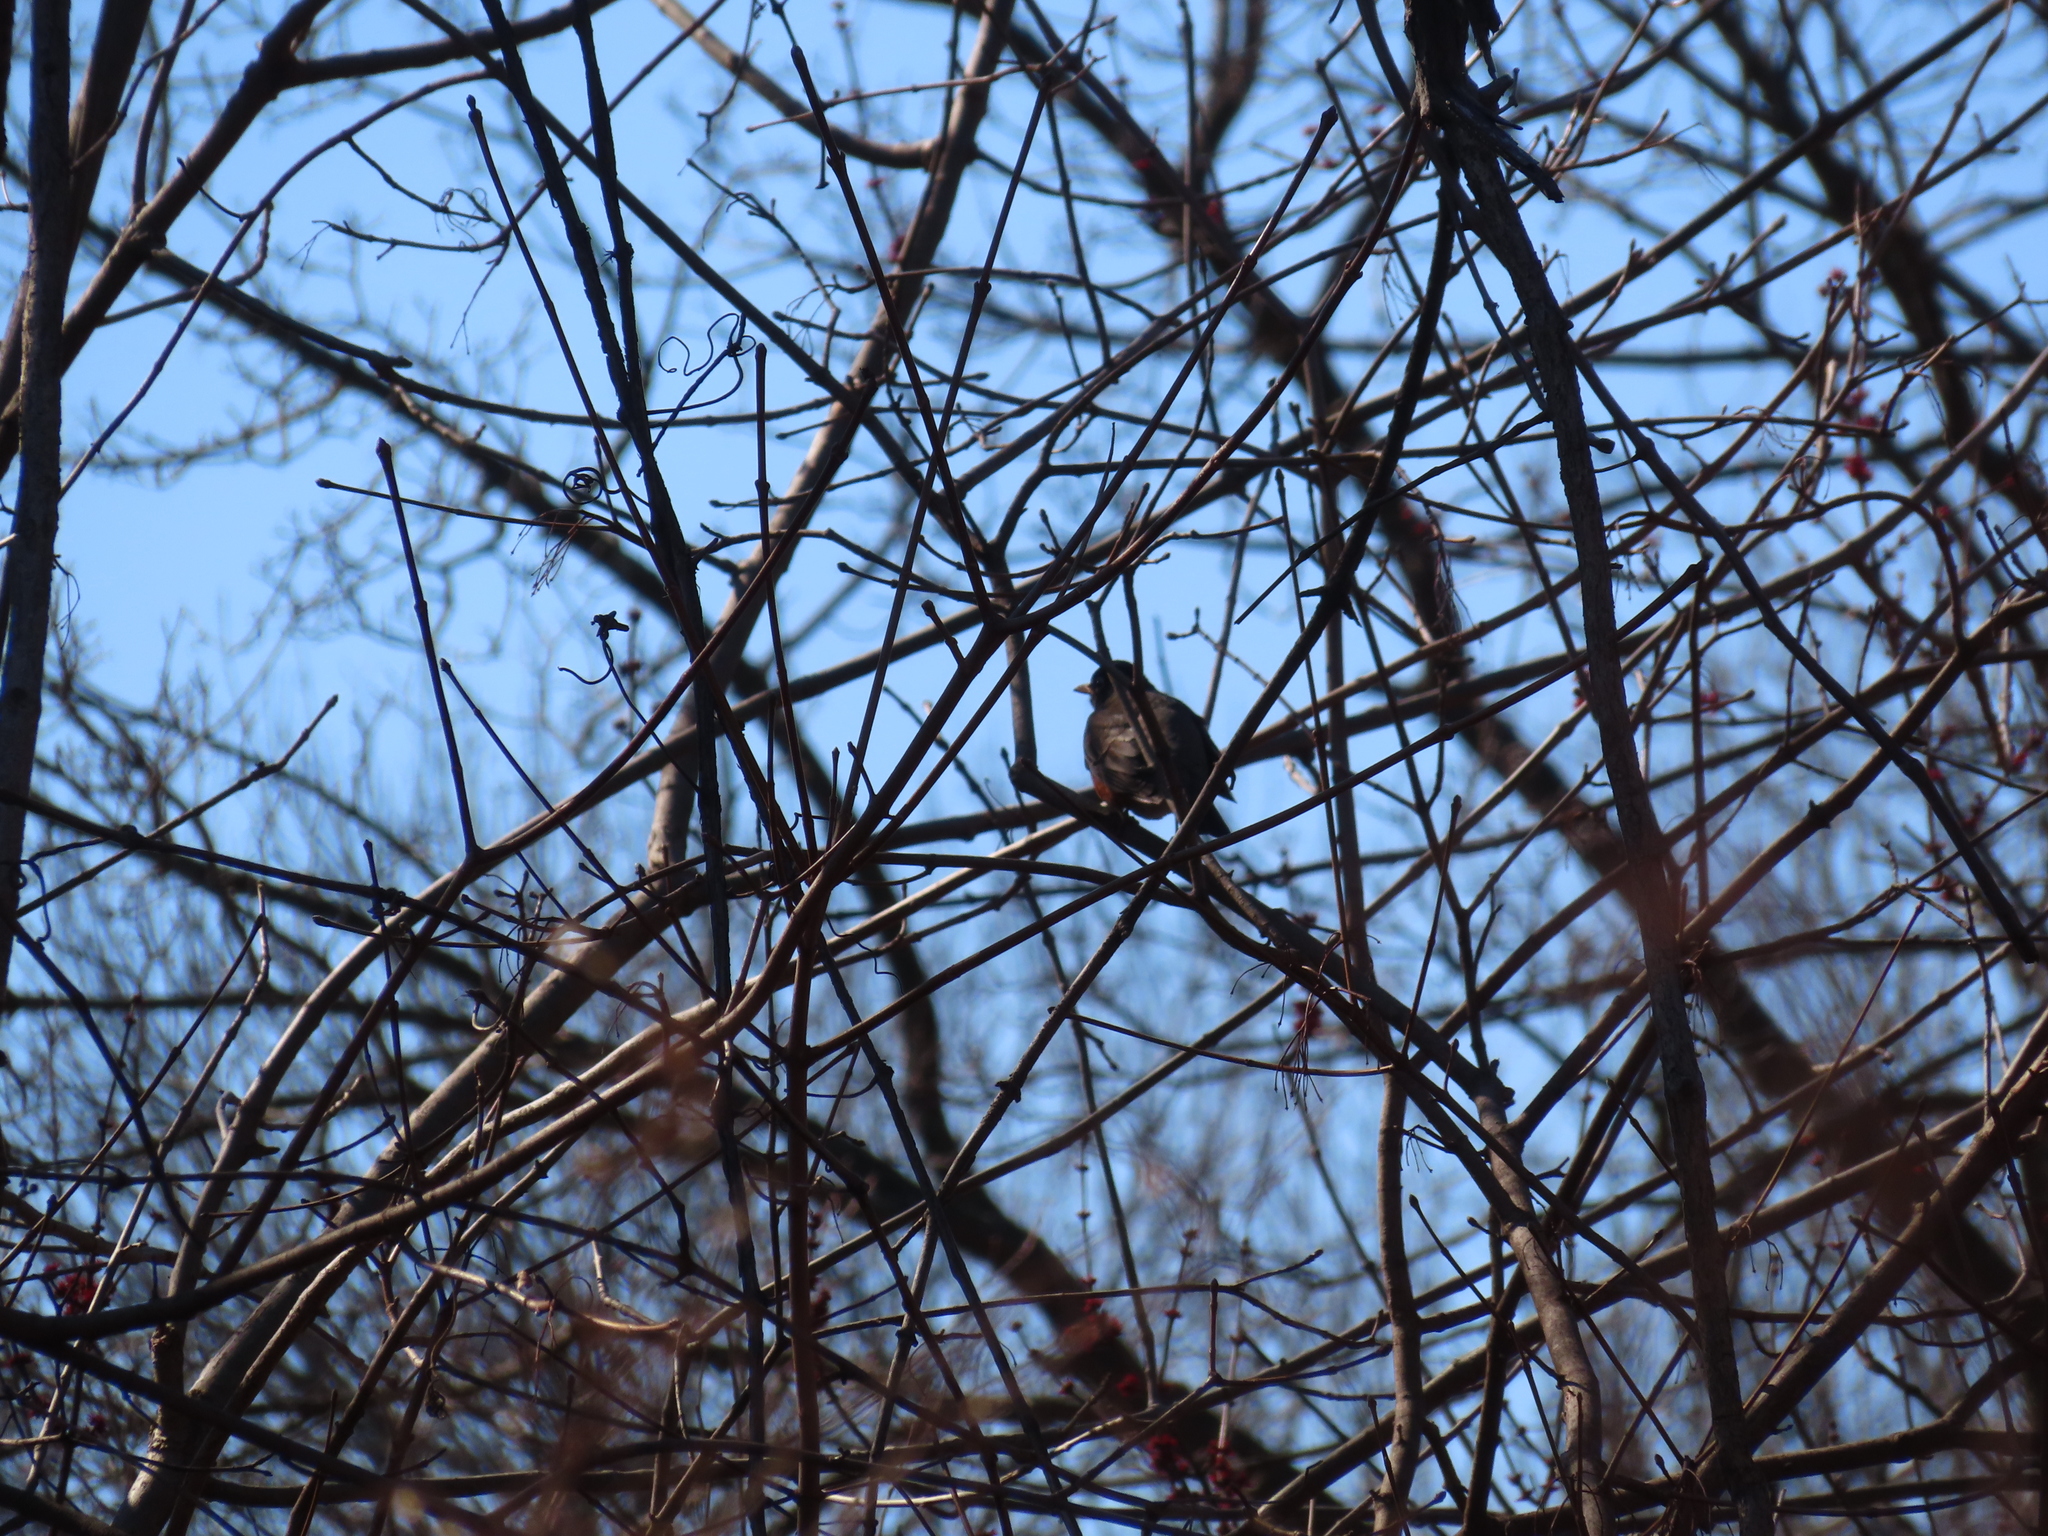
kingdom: Animalia
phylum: Chordata
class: Aves
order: Passeriformes
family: Turdidae
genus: Turdus
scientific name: Turdus migratorius
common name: American robin
